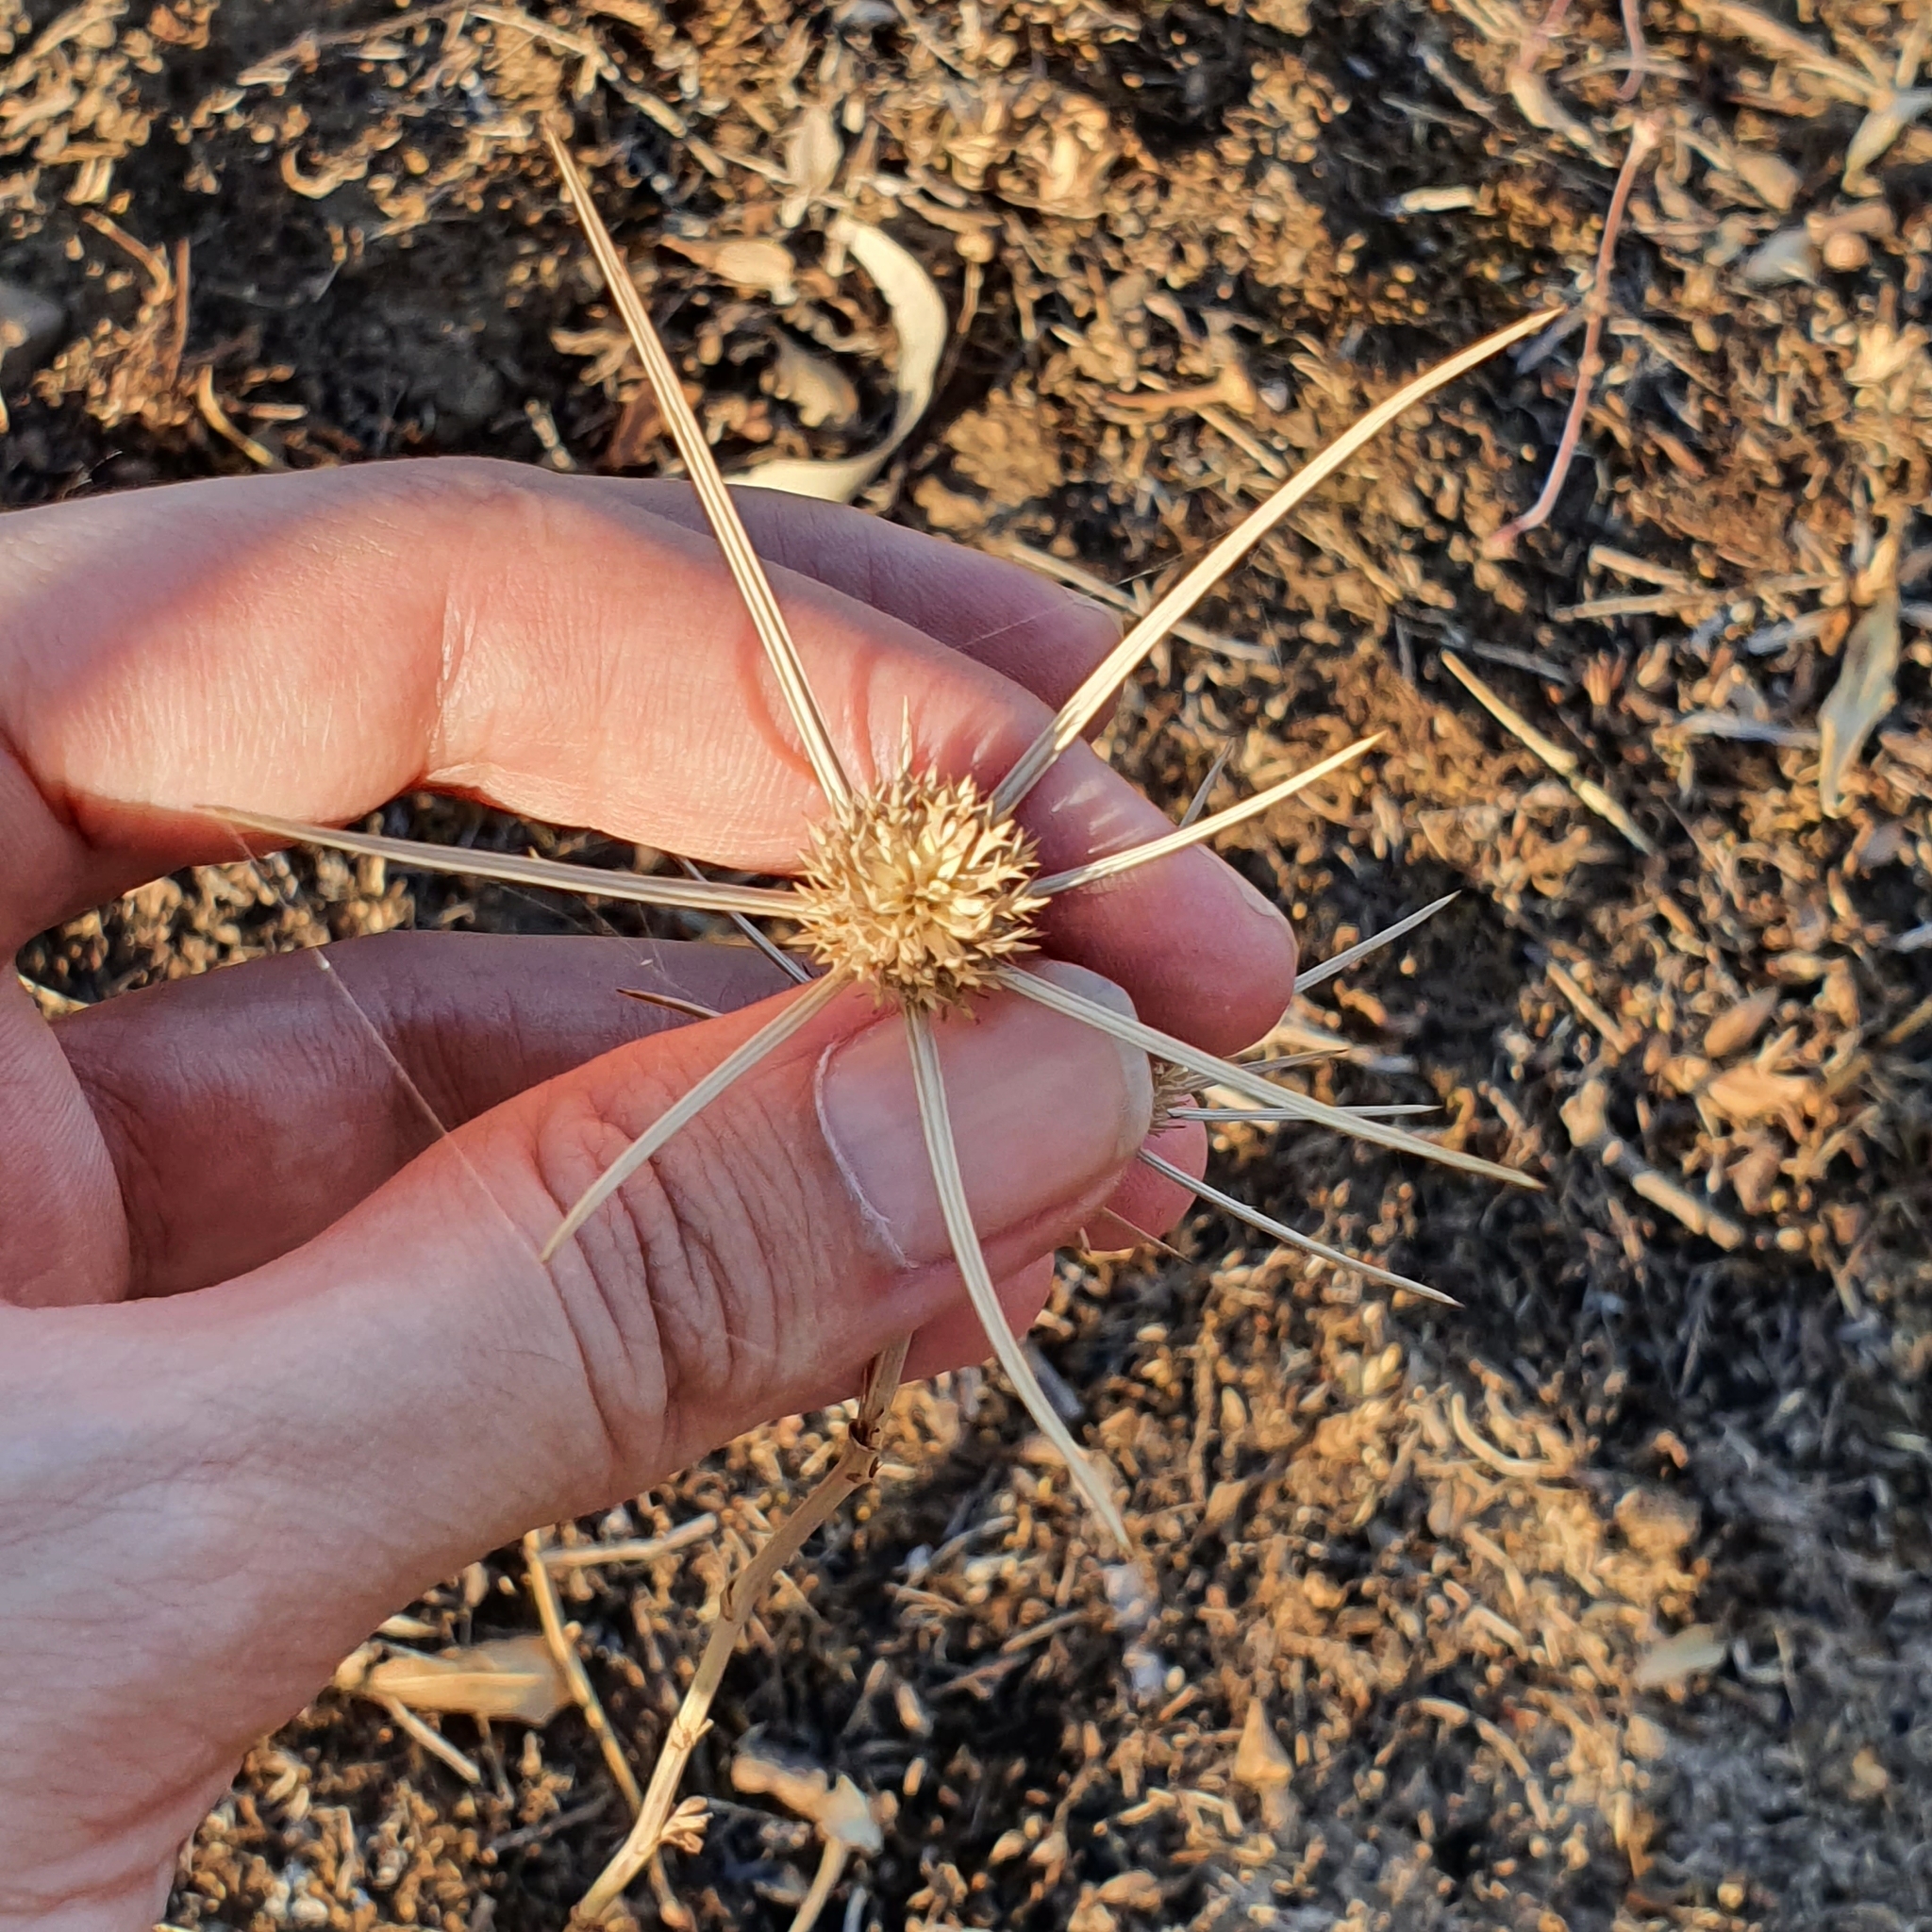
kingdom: Plantae
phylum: Tracheophyta
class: Magnoliopsida
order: Apiales
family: Apiaceae
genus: Eryngium
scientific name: Eryngium tricuspidatum
